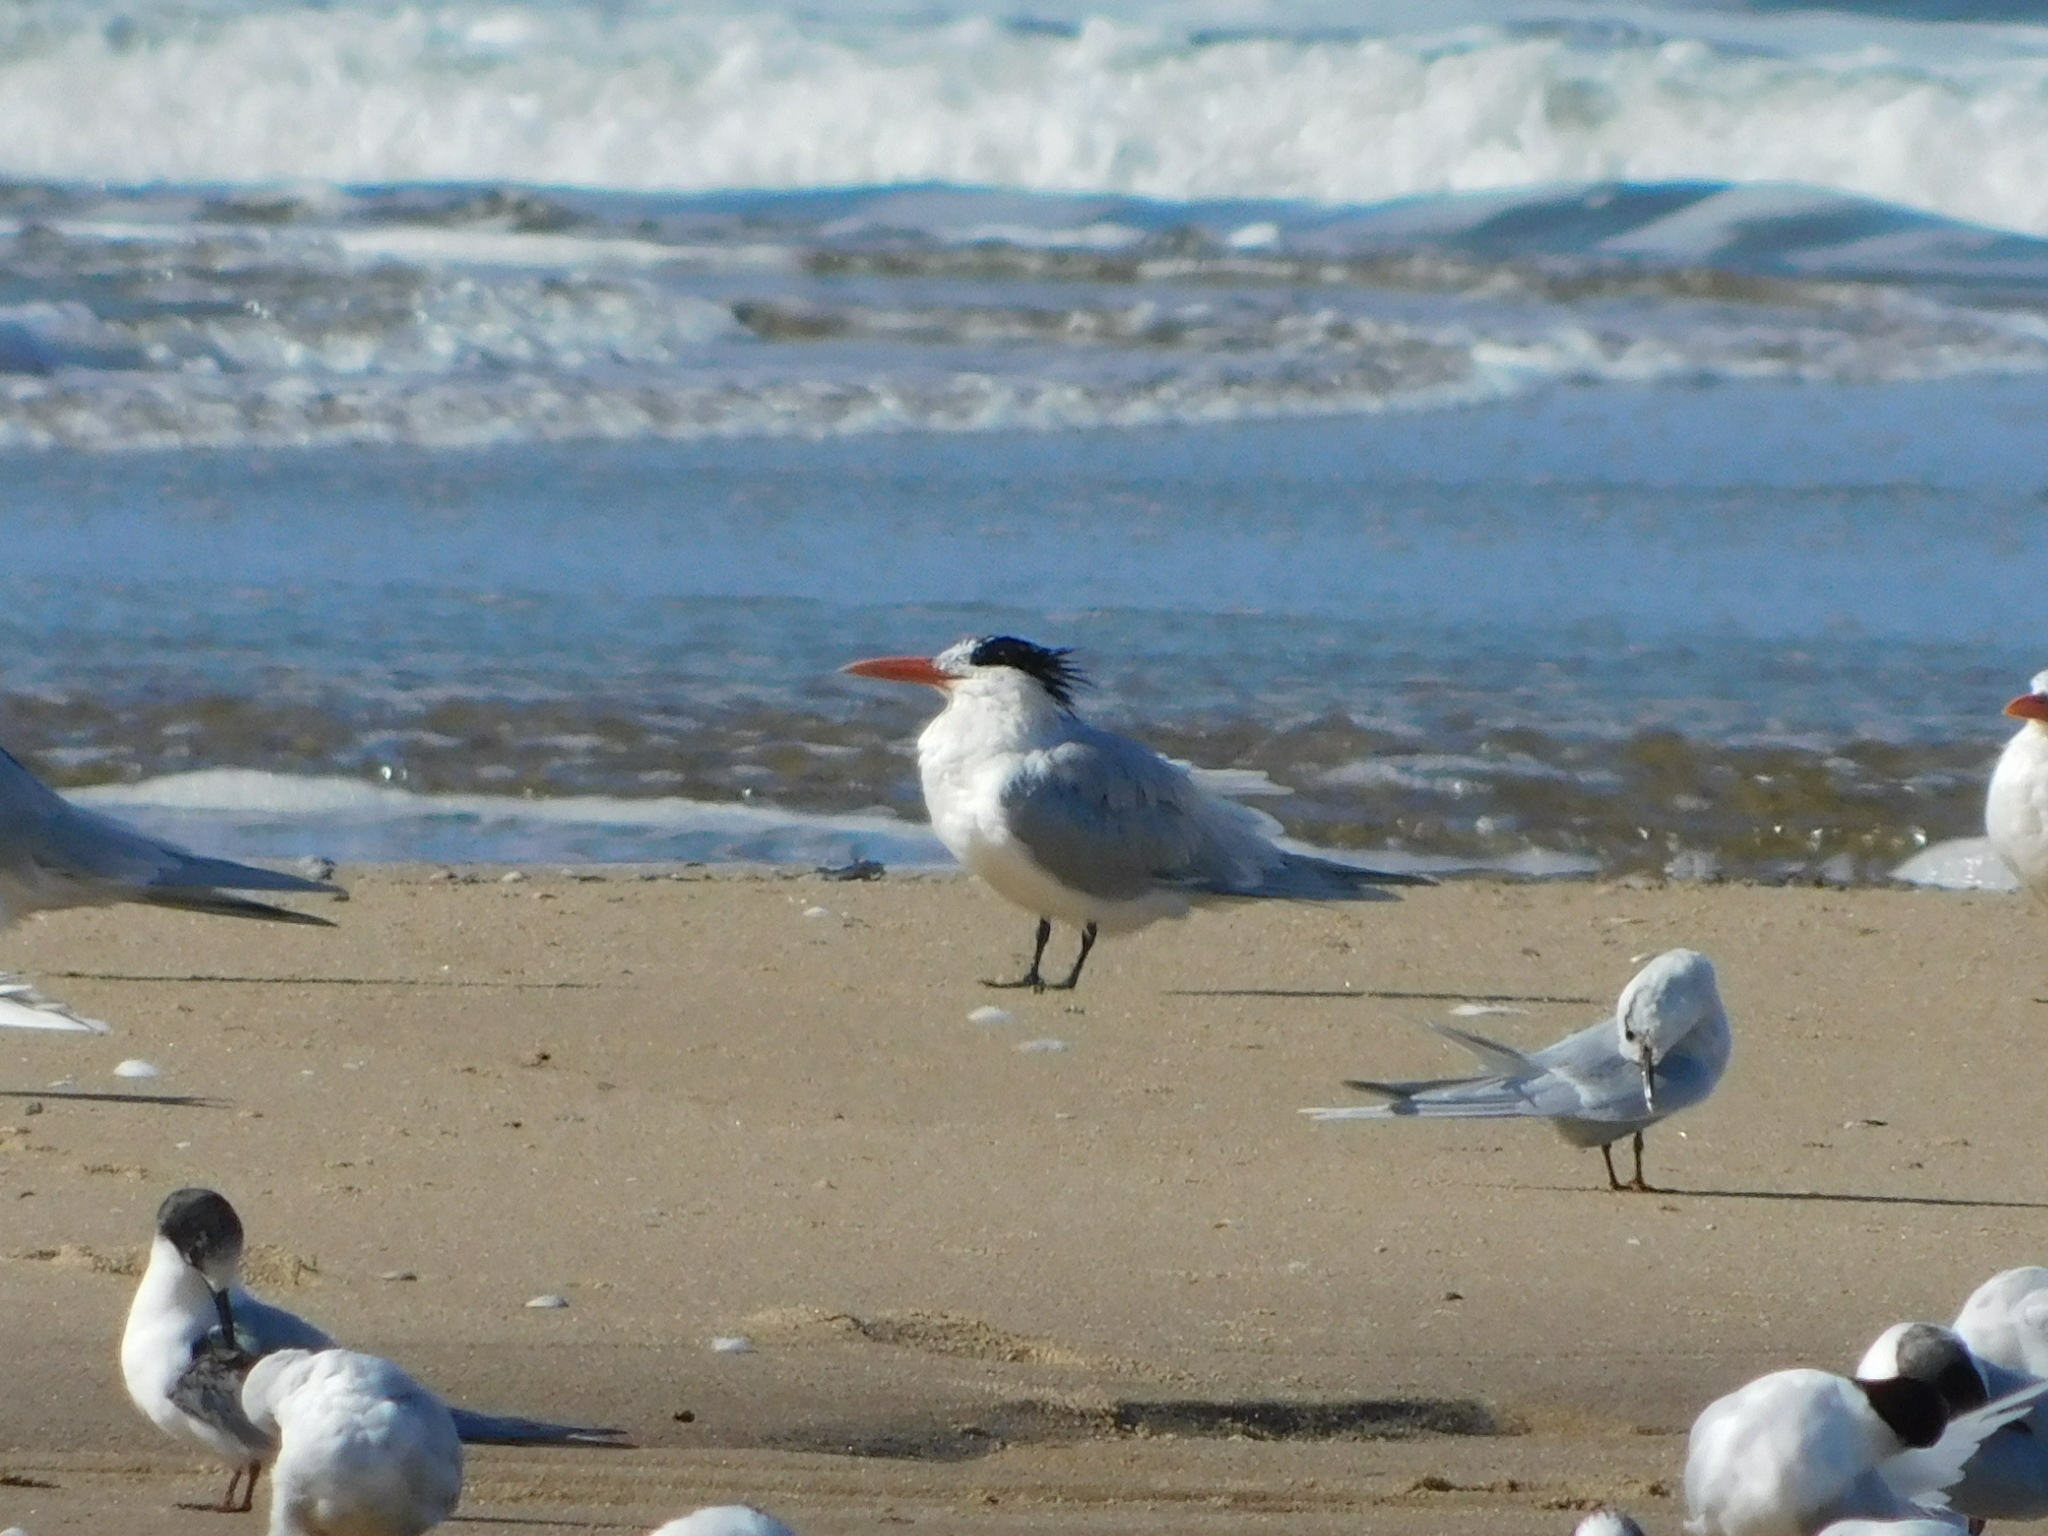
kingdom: Animalia
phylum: Chordata
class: Aves
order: Charadriiformes
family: Laridae
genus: Thalasseus
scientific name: Thalasseus maximus
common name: Royal tern
